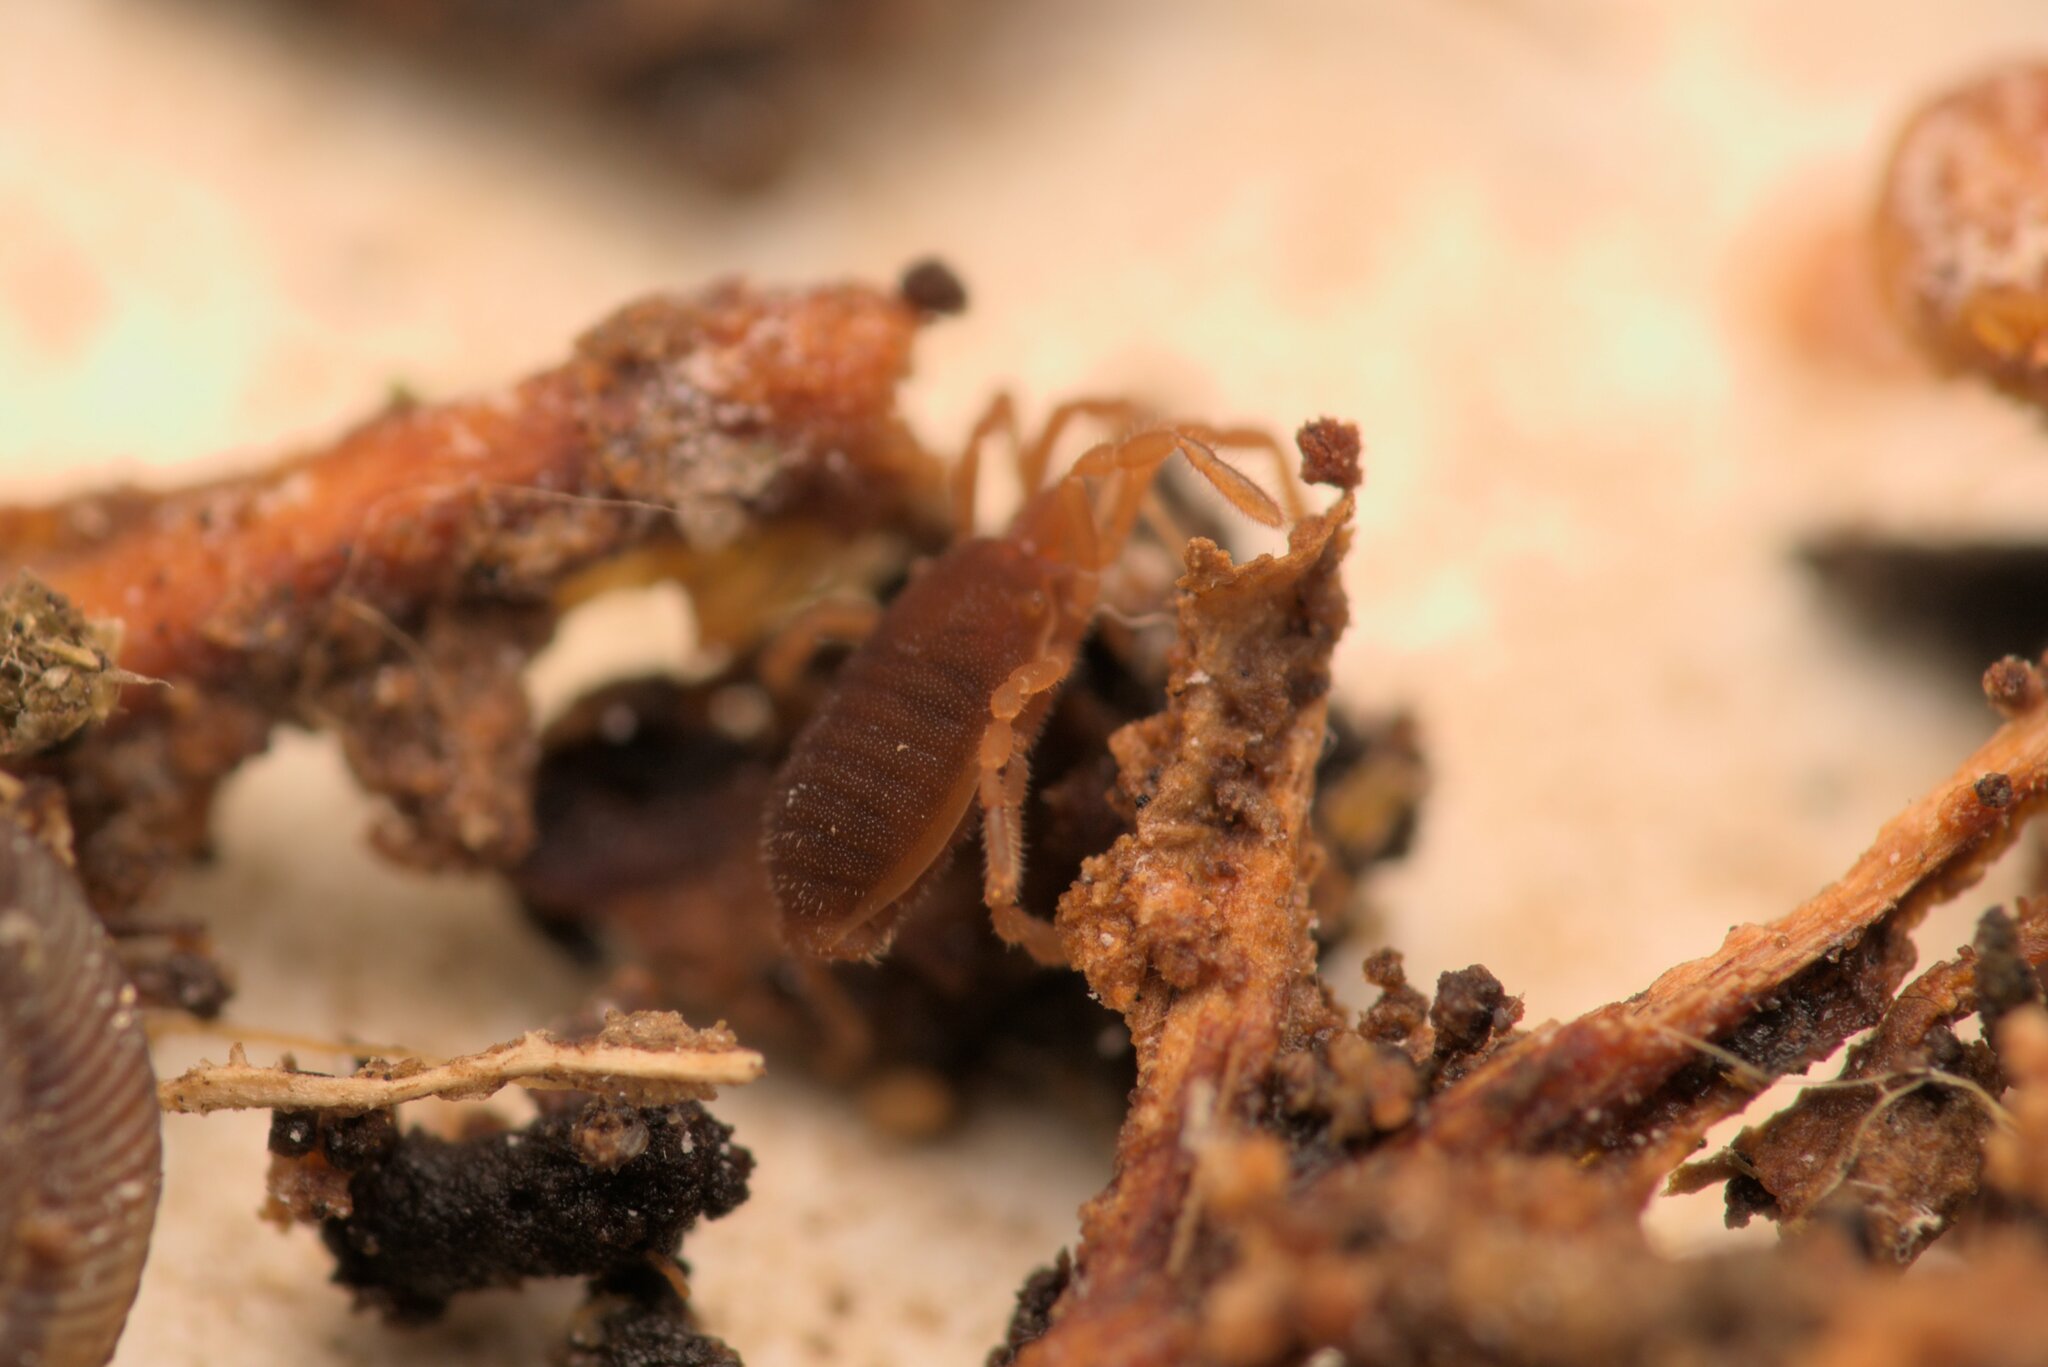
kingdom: Animalia
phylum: Arthropoda
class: Arachnida
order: Opiliones
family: Sironidae
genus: Siro
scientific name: Siro rubens
